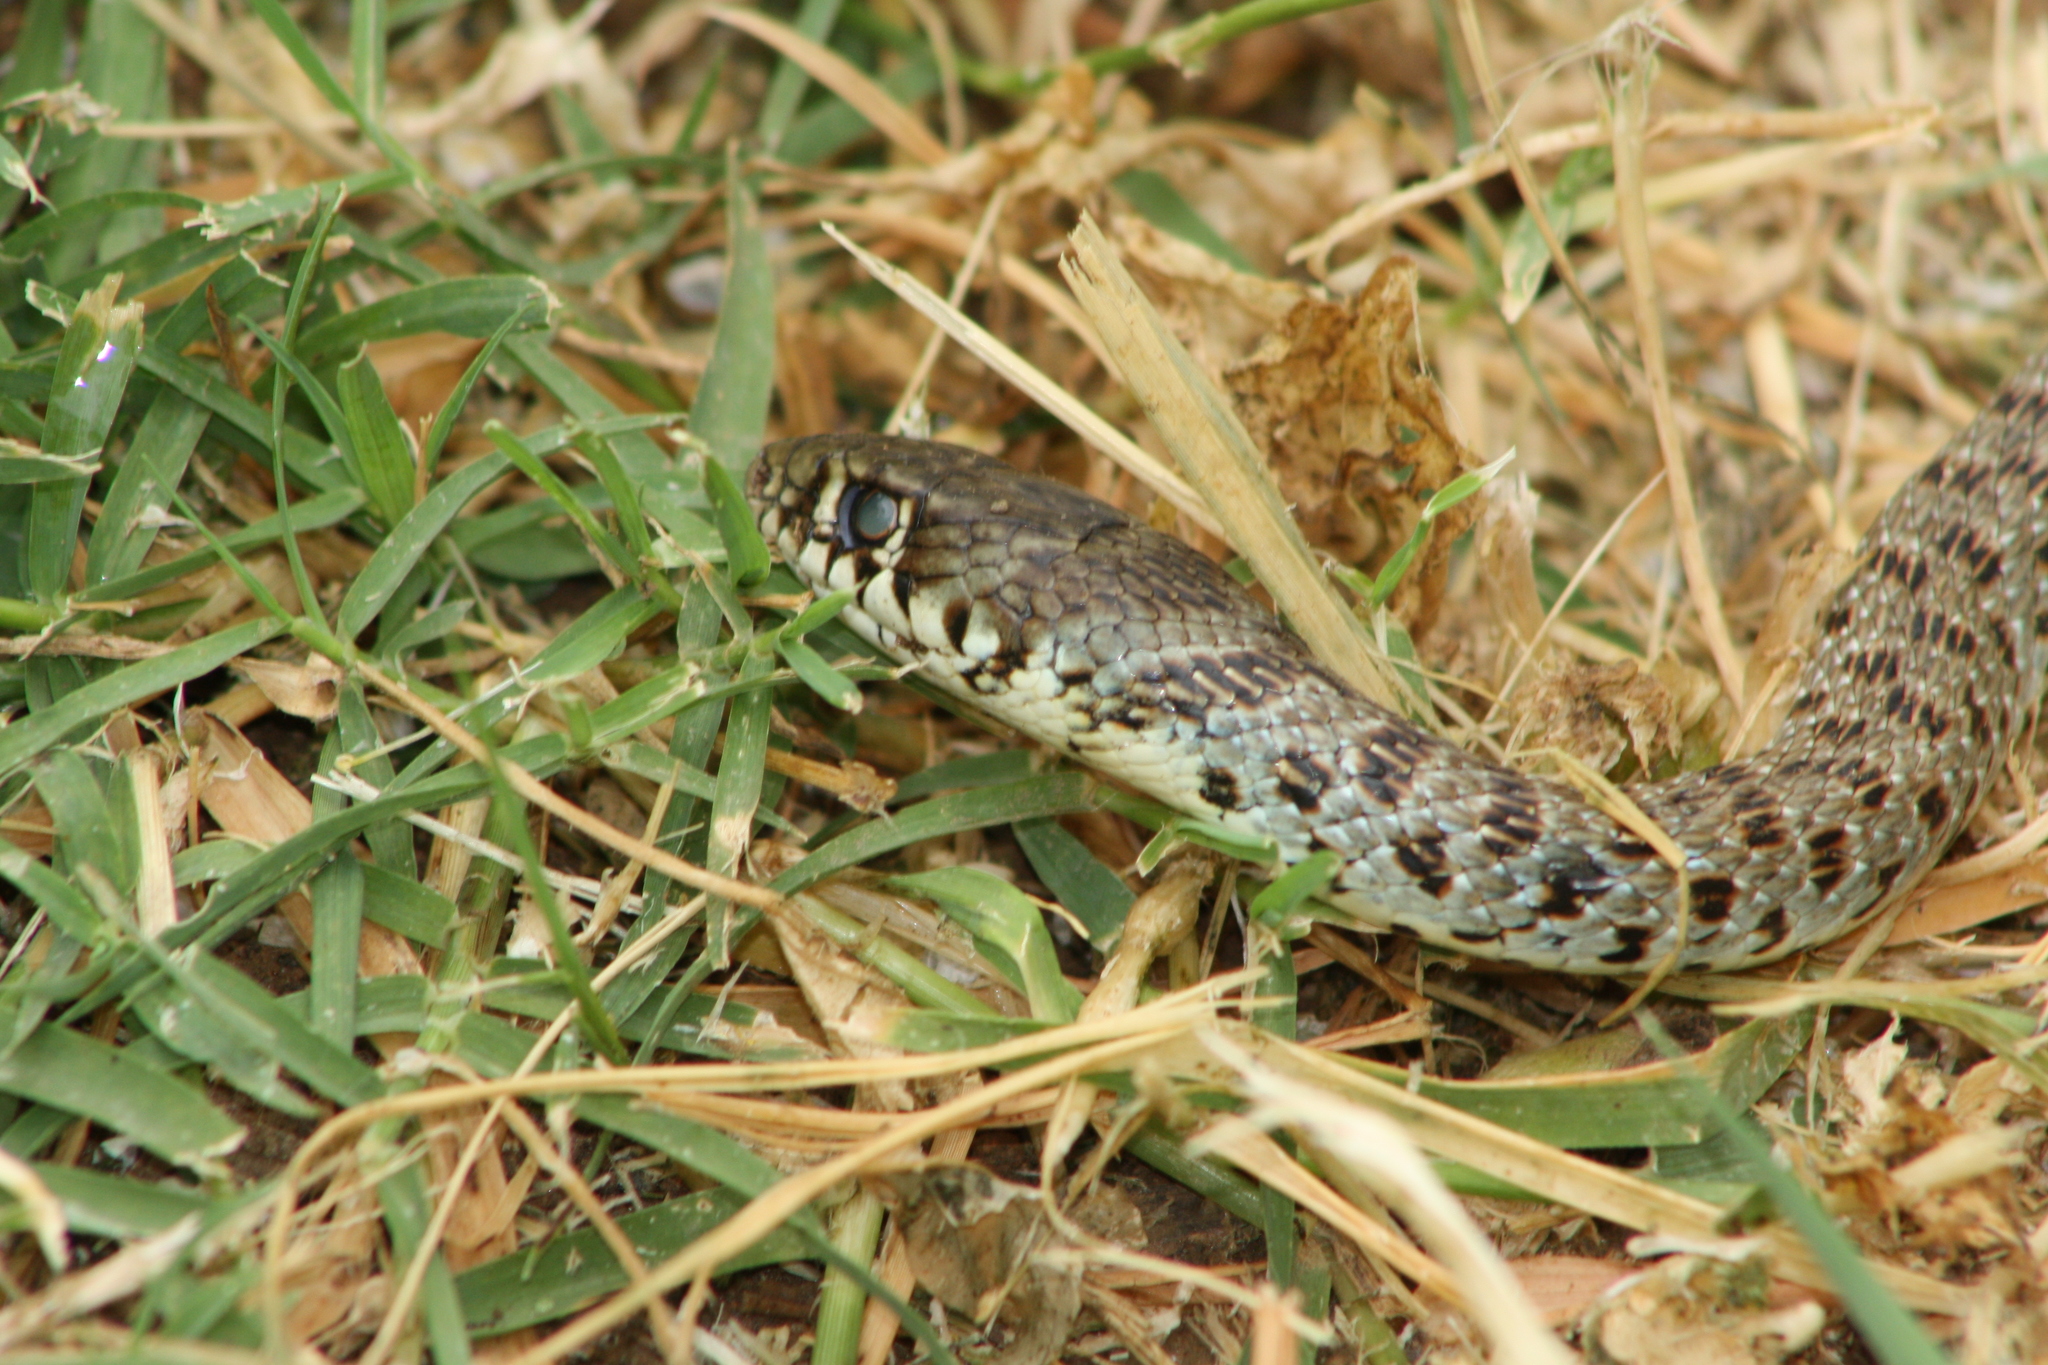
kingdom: Animalia
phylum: Chordata
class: Squamata
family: Colubridae
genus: Hierophis
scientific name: Hierophis gemonensis
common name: Balkan whip snake
